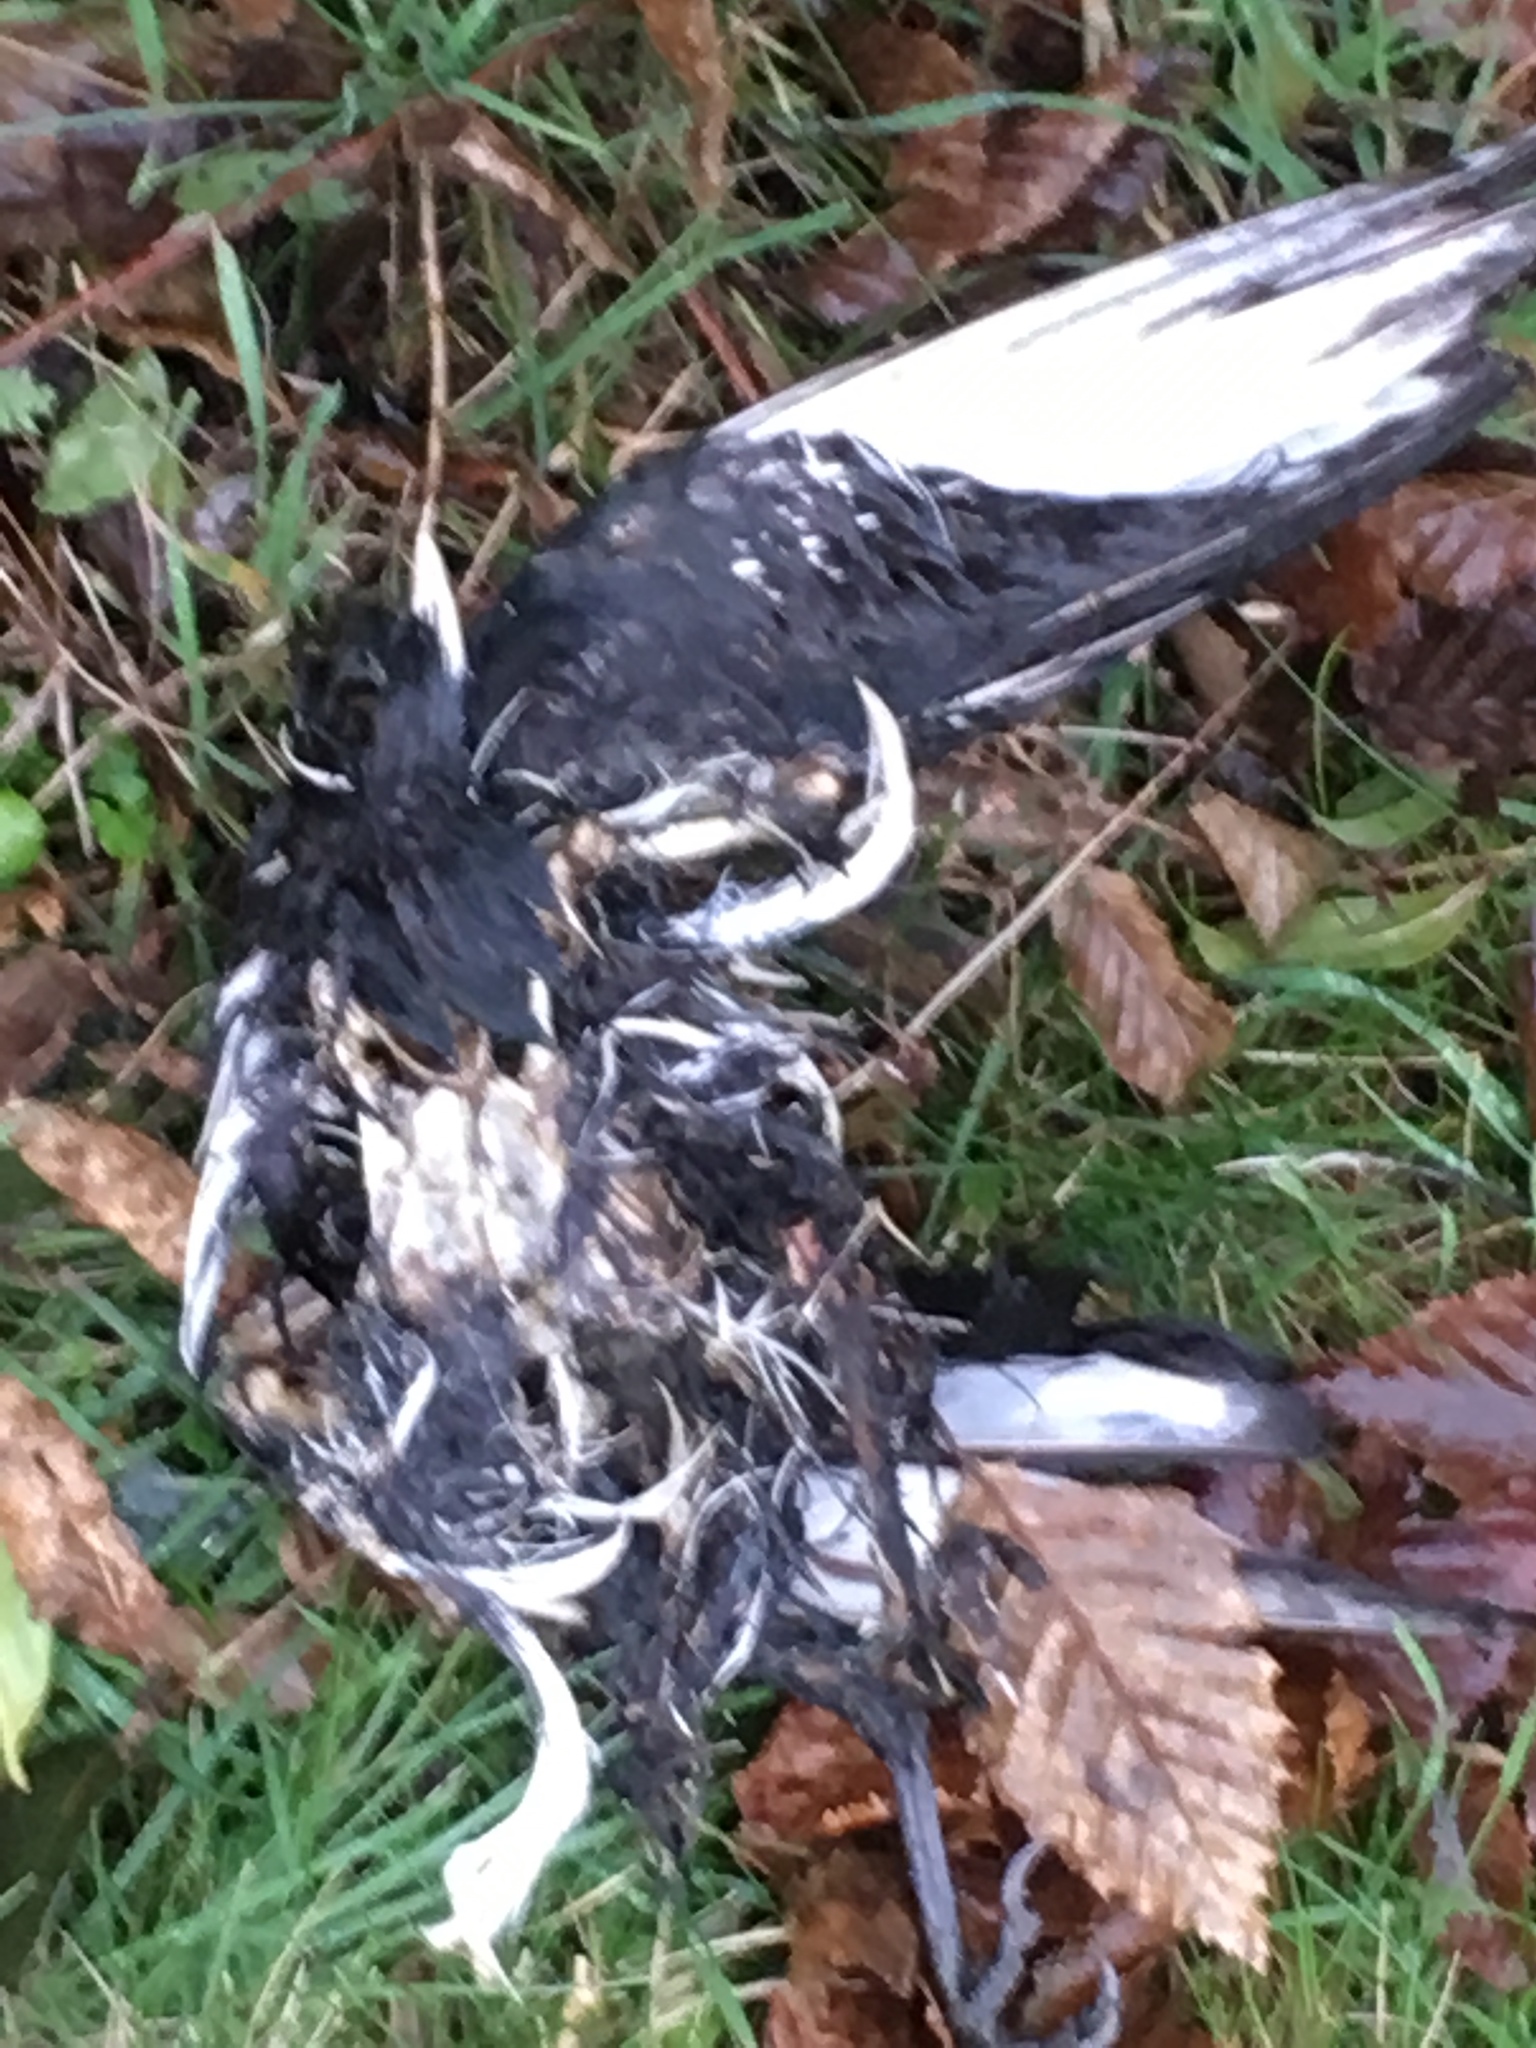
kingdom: Animalia
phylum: Chordata
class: Aves
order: Passeriformes
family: Corvidae
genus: Pica
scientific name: Pica pica
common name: Eurasian magpie
